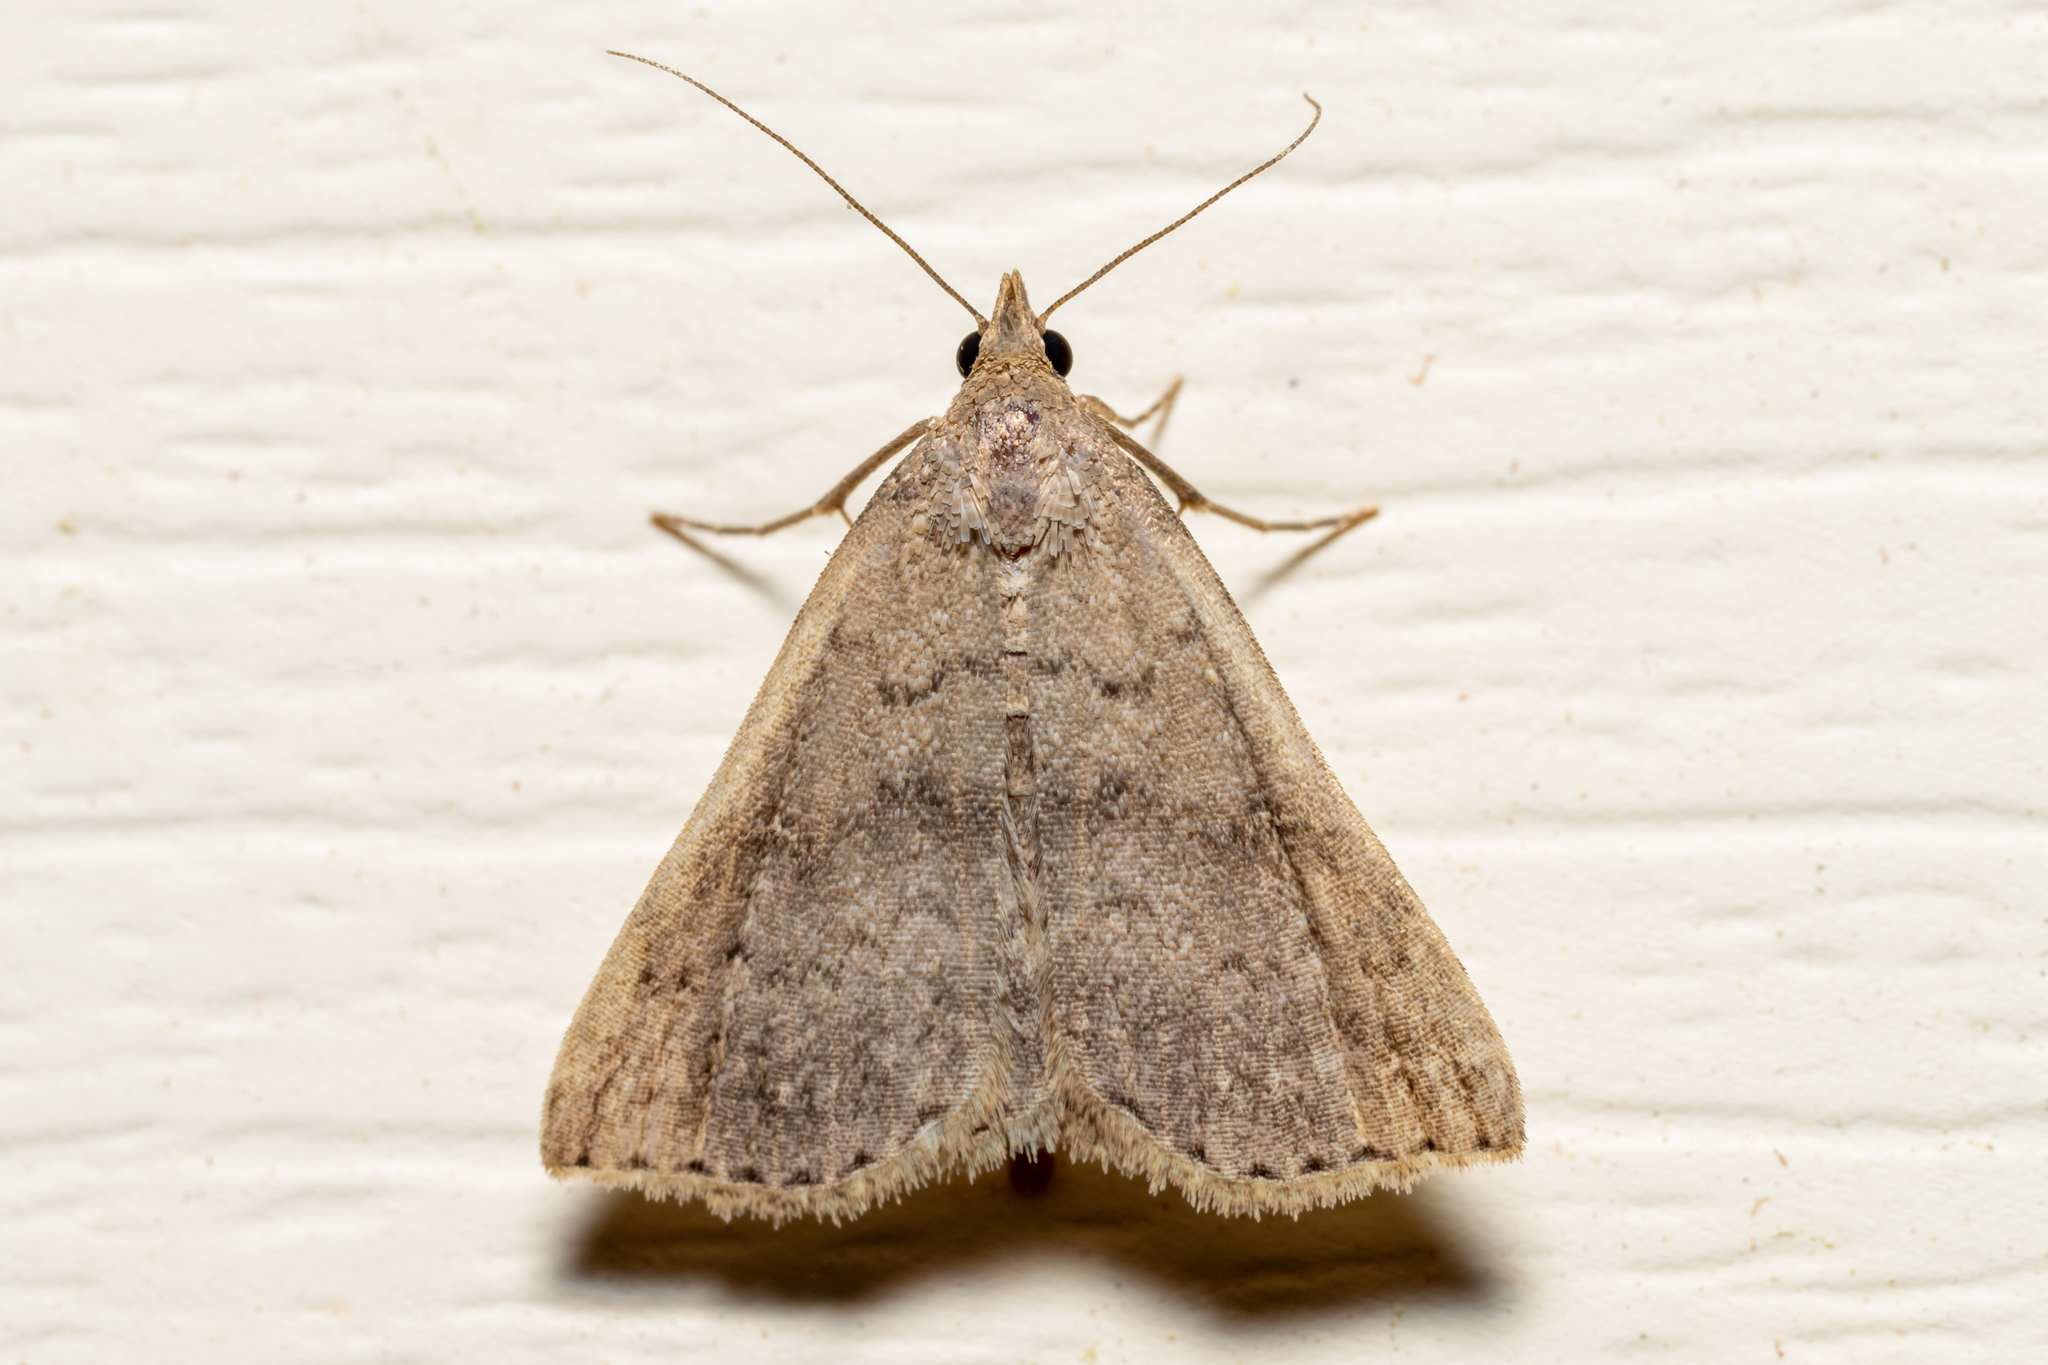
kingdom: Animalia
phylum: Arthropoda
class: Insecta
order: Lepidoptera
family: Erebidae
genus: Bleptina
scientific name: Bleptina caradrinalis
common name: Bent-winged owlet
